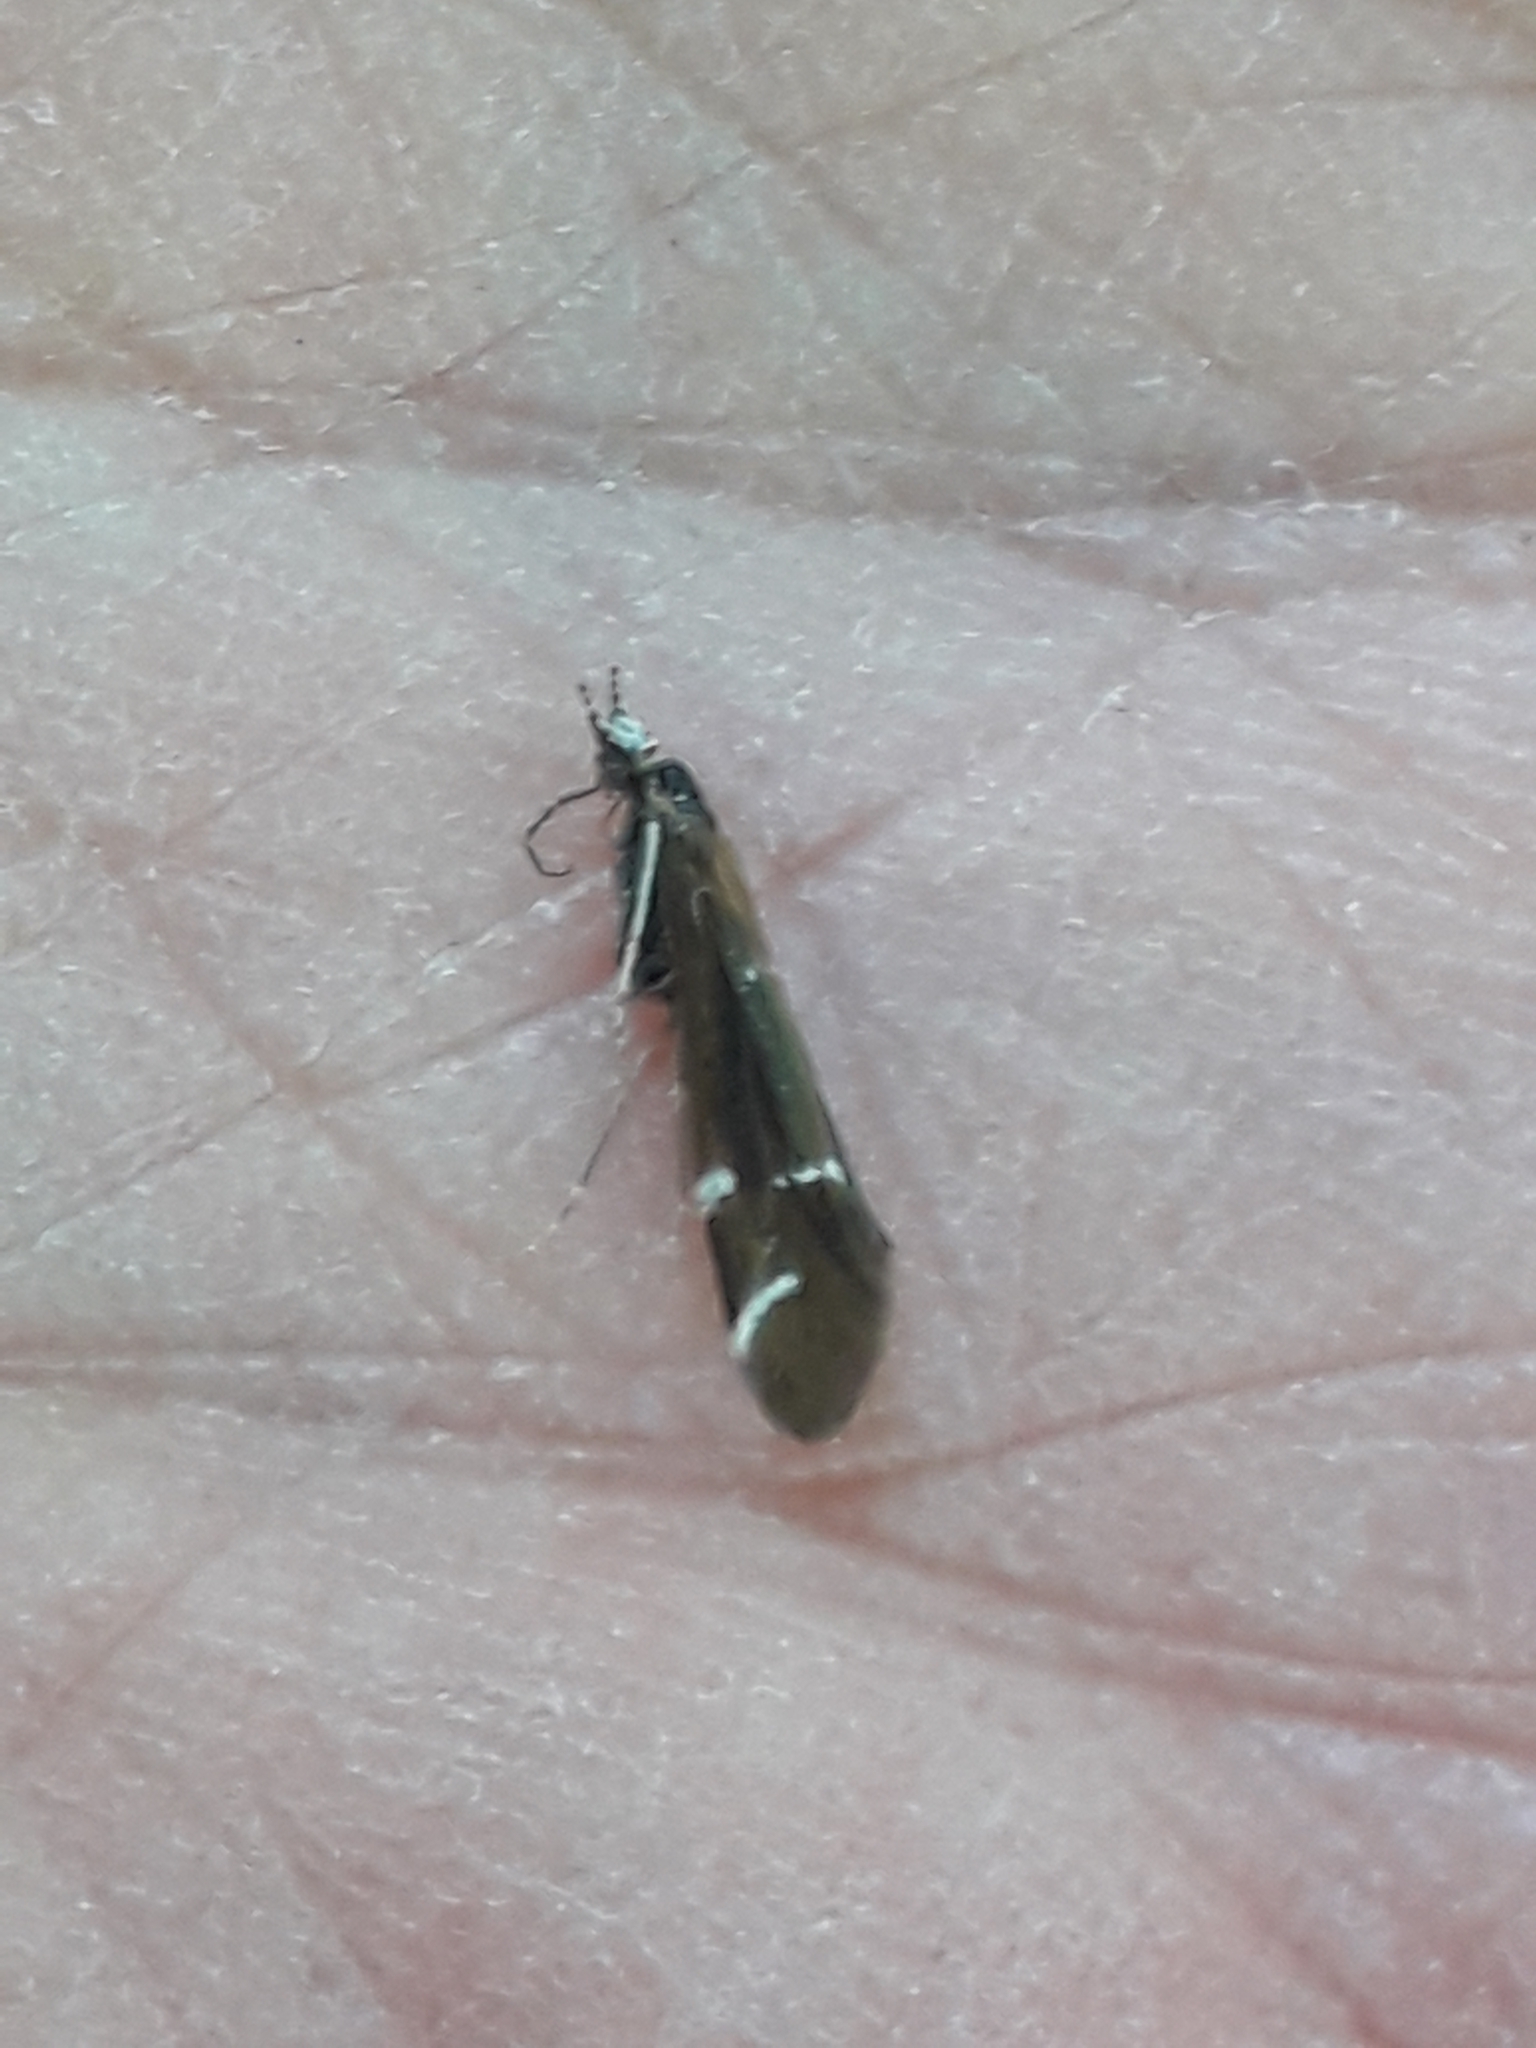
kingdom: Animalia
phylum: Arthropoda
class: Insecta
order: Trichoptera
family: Leptoceridae
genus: Athripsodes
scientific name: Athripsodes albifrons
